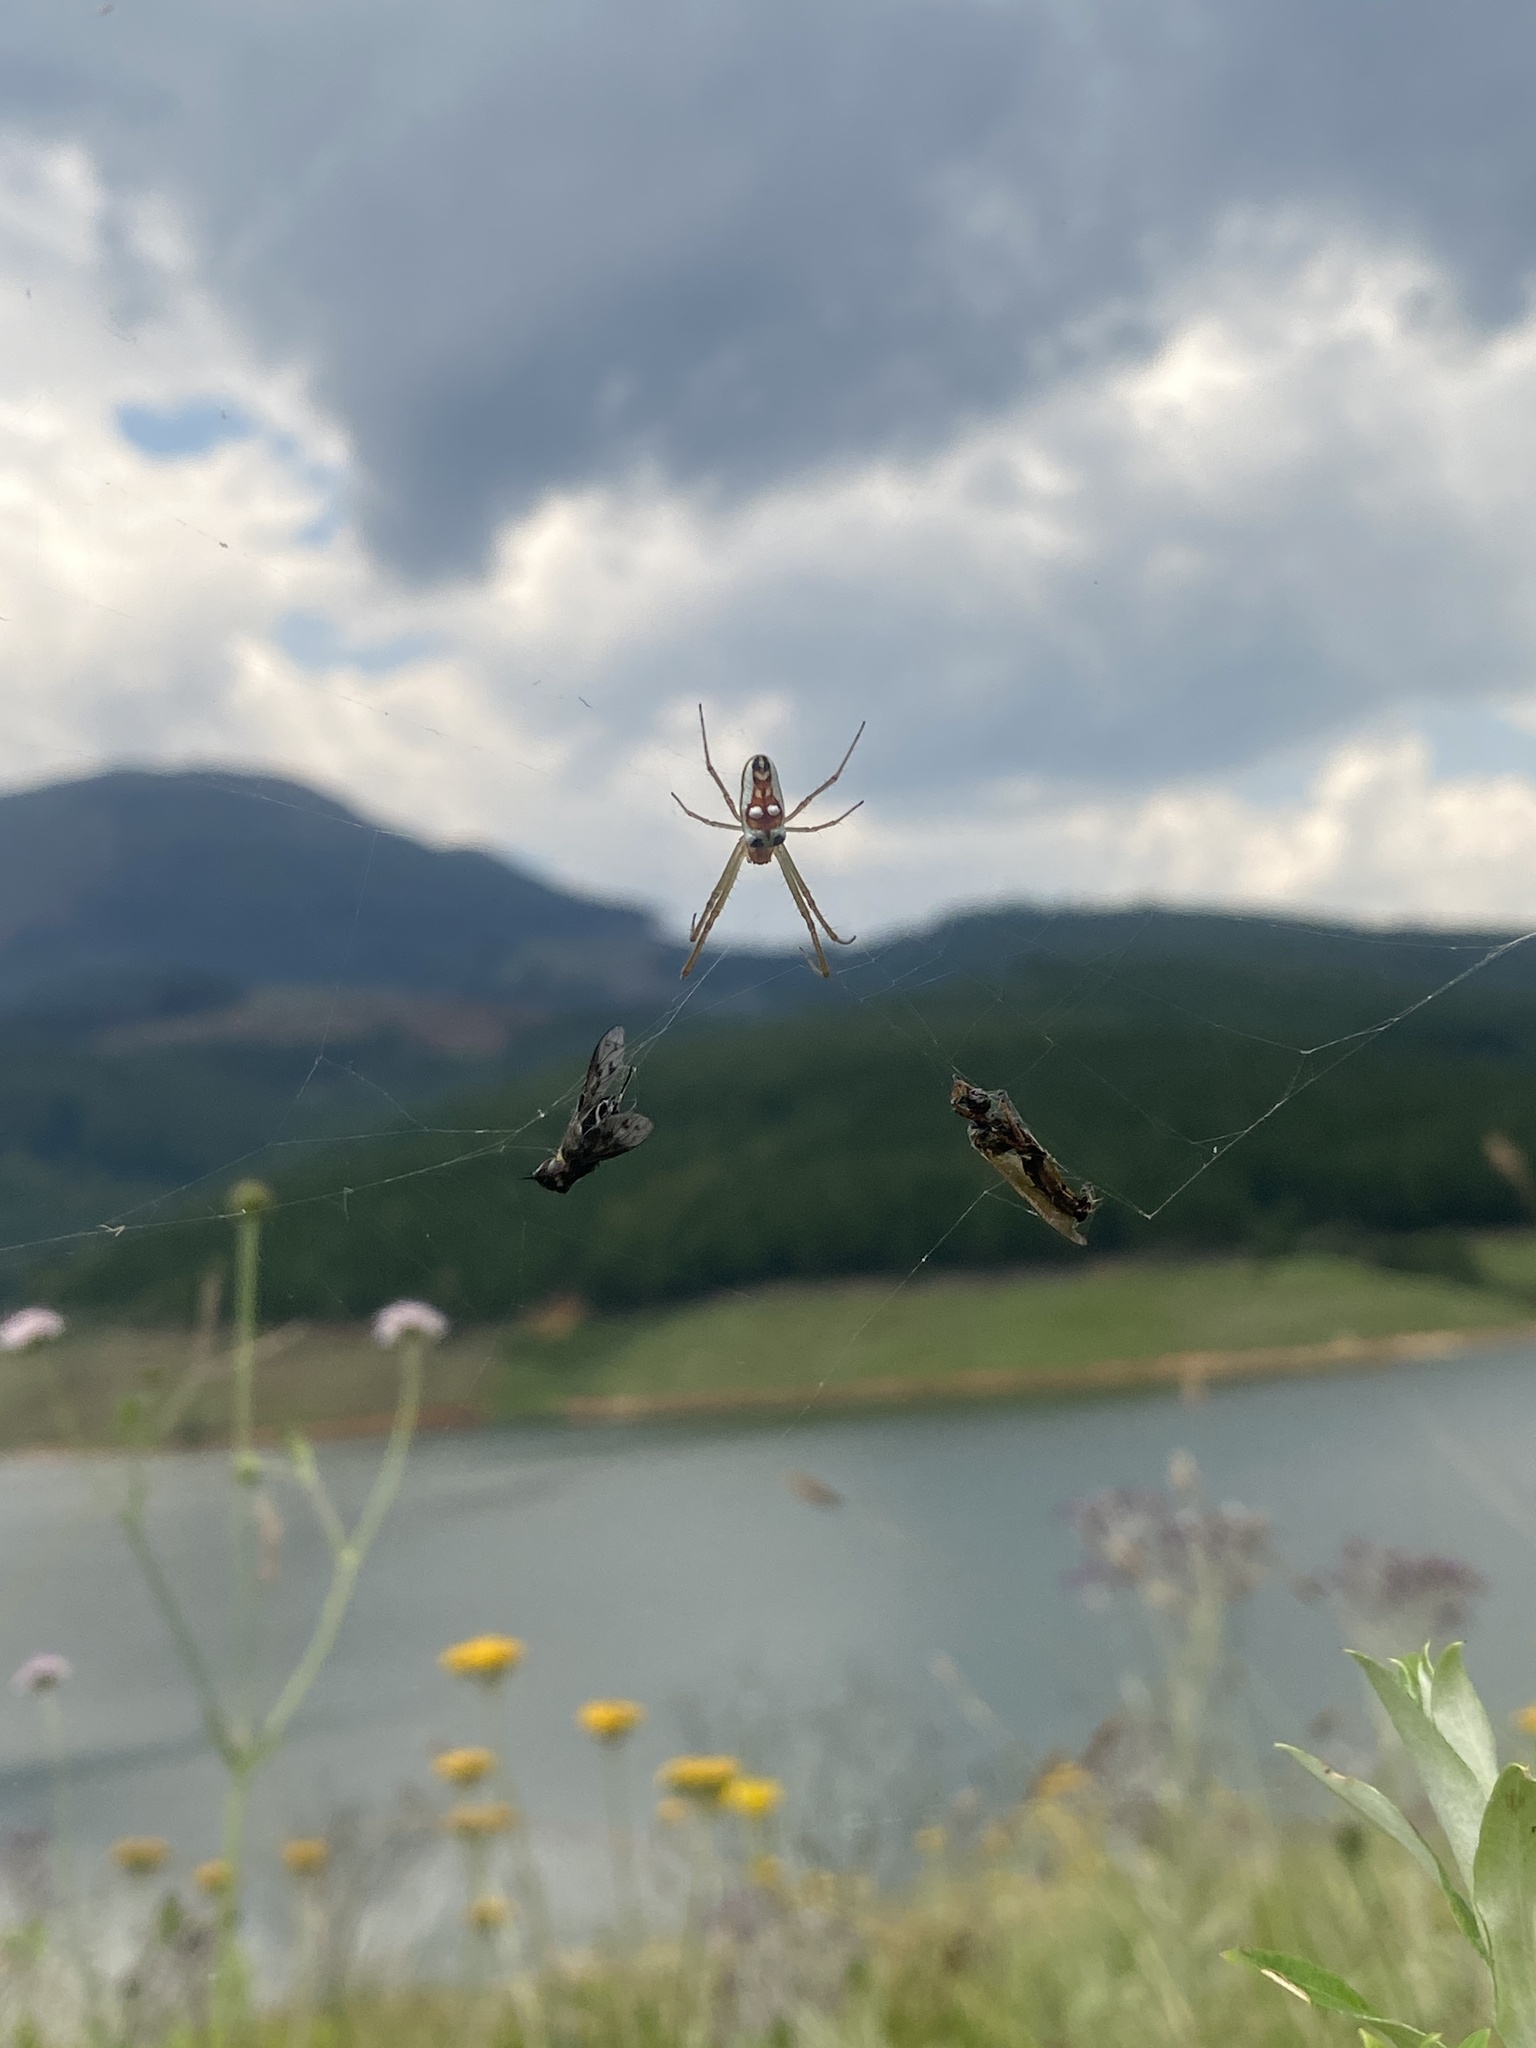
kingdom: Animalia
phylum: Arthropoda
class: Arachnida
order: Araneae
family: Tetragnathidae
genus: Leucauge
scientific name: Leucauge festiva
